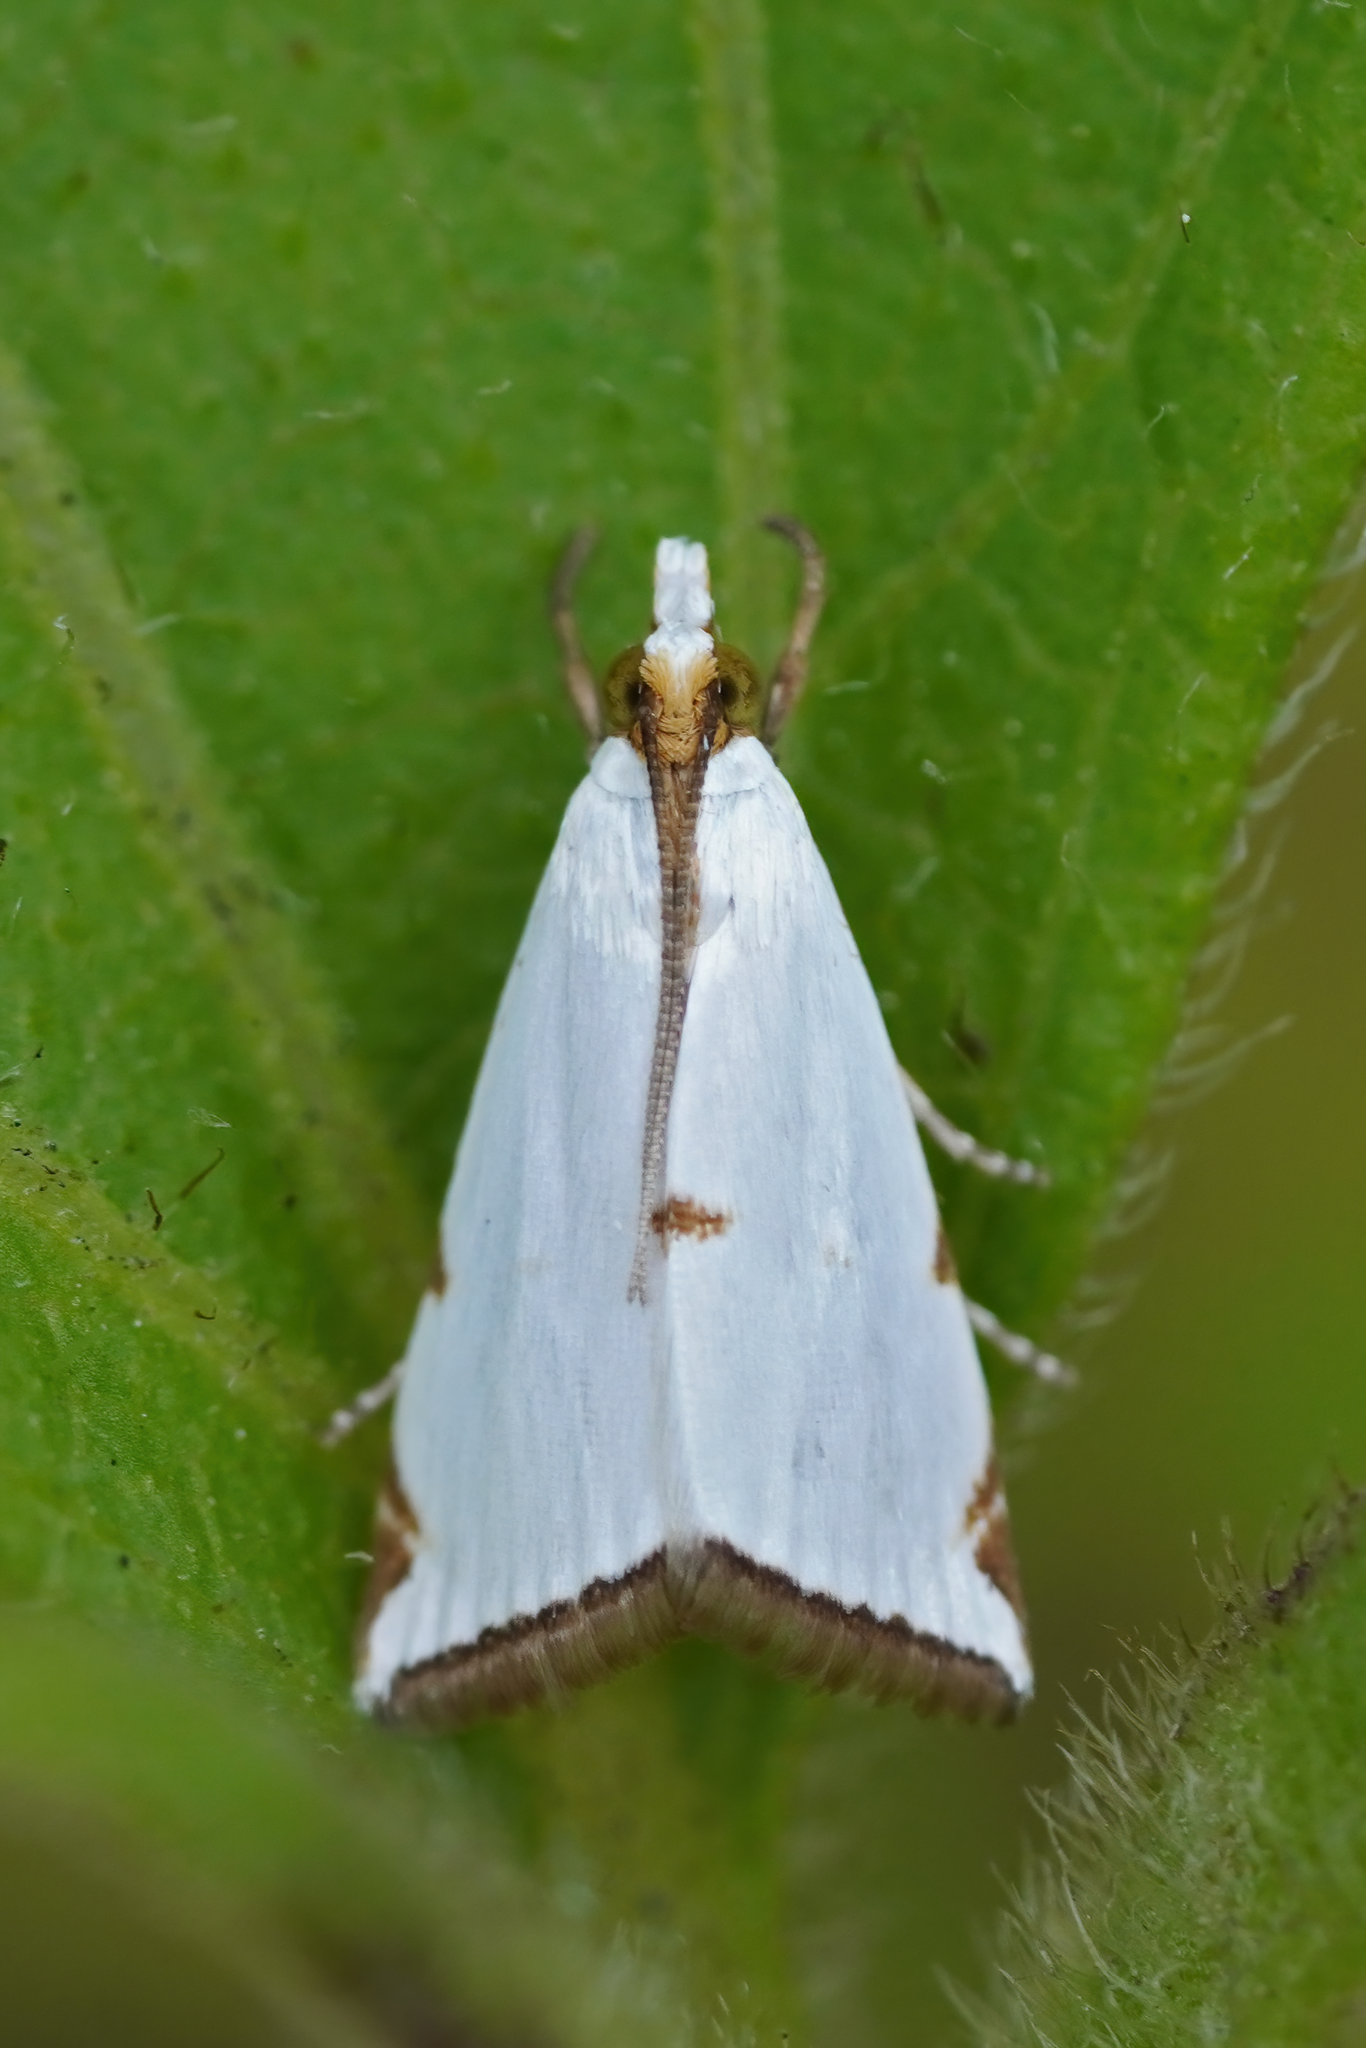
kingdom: Animalia
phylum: Arthropoda
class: Insecta
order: Lepidoptera
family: Crambidae
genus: Argyria
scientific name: Argyria lacteella
